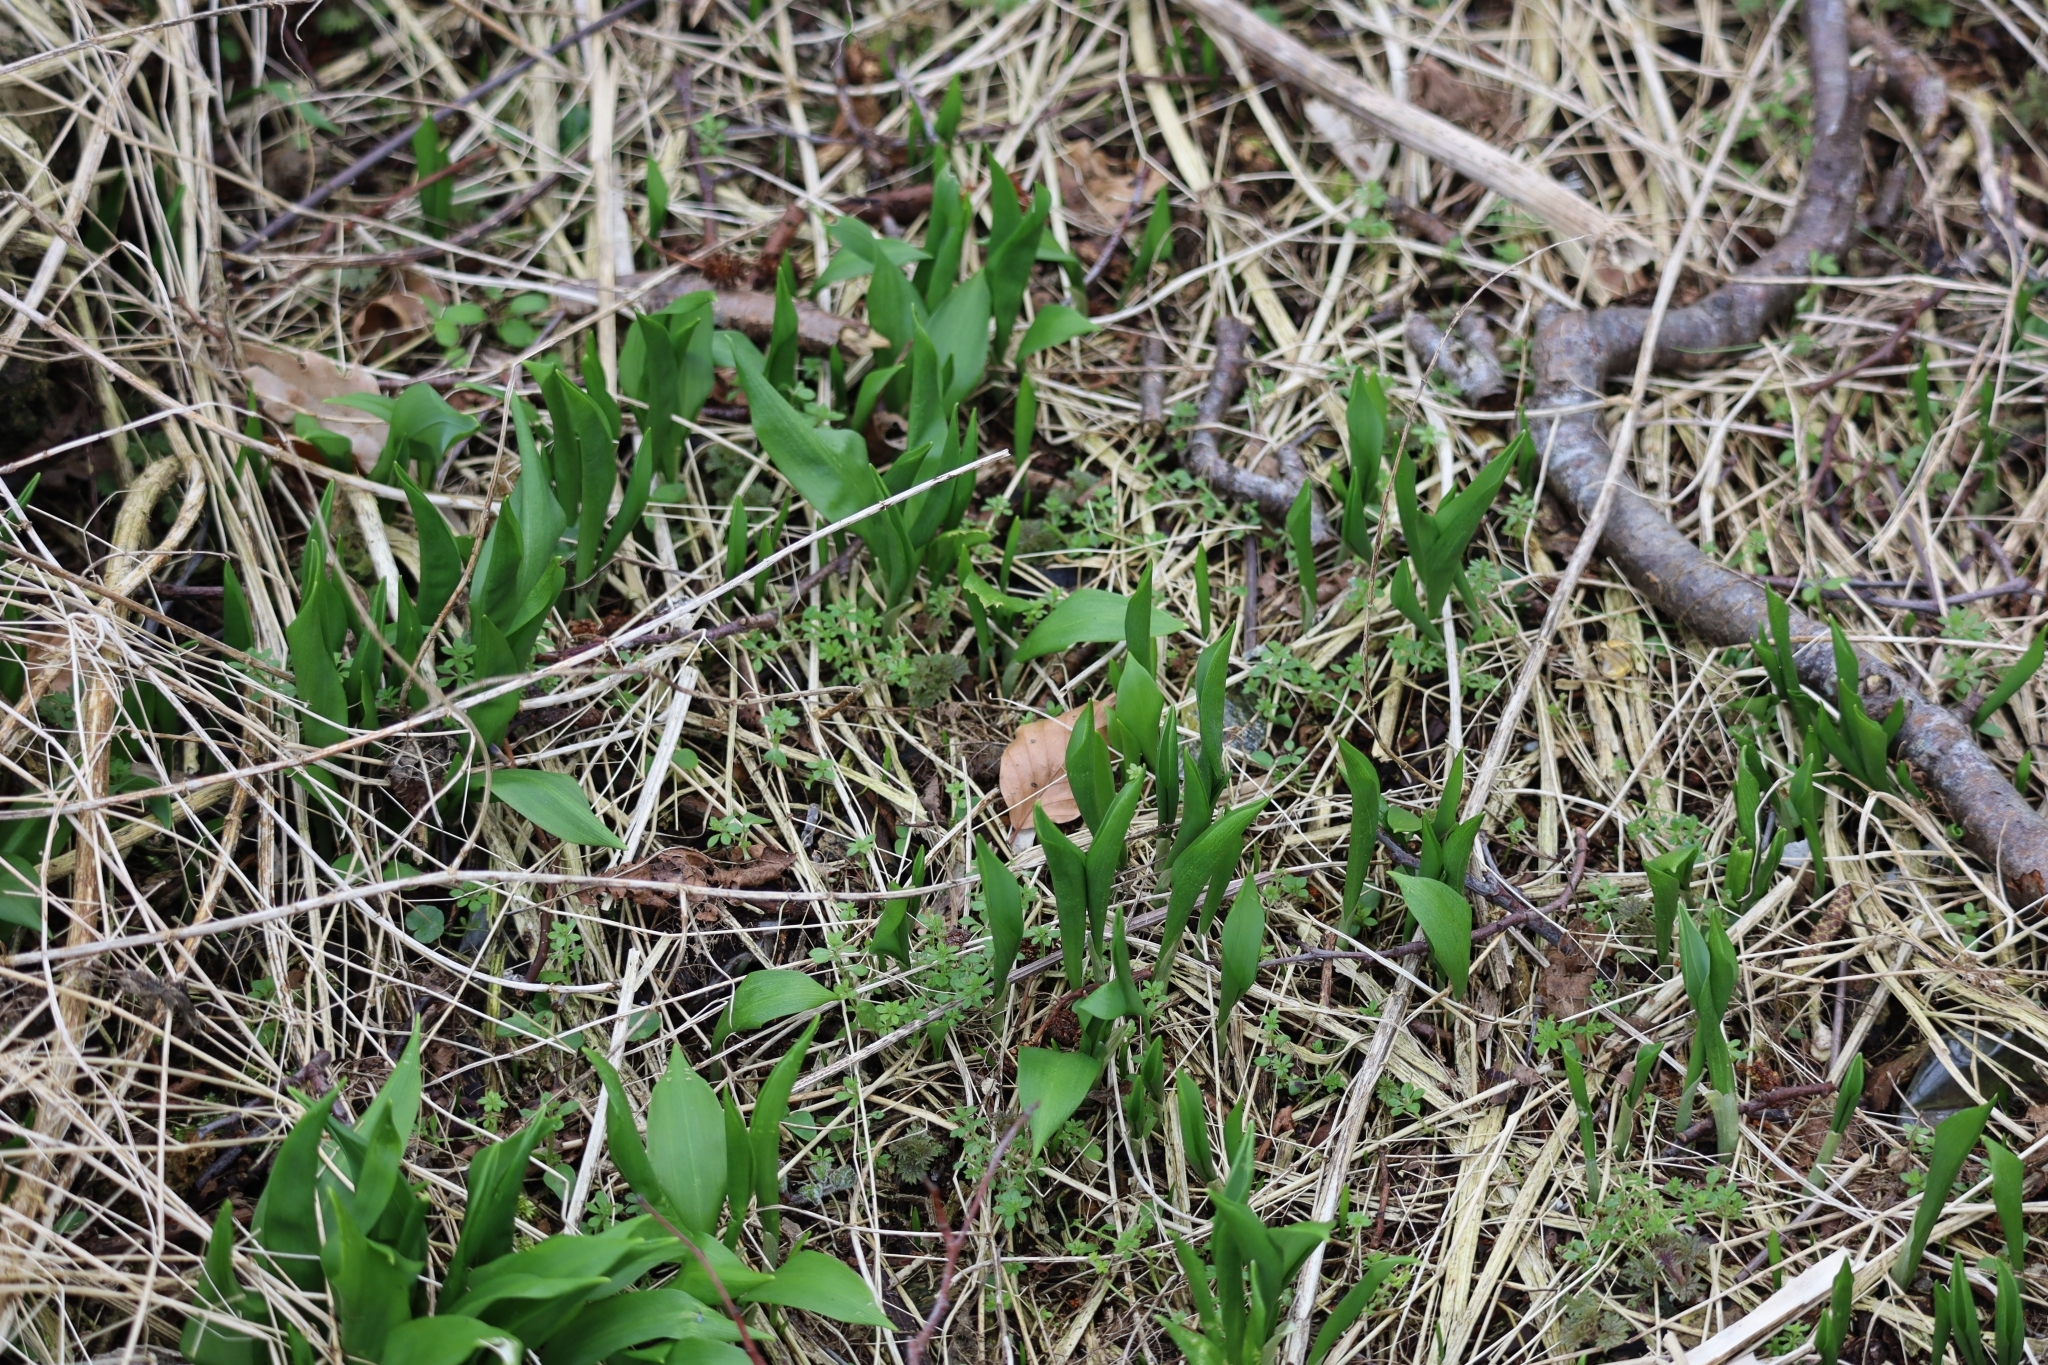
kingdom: Plantae
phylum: Tracheophyta
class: Liliopsida
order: Asparagales
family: Amaryllidaceae
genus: Allium
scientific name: Allium ursinum
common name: Ramsons
